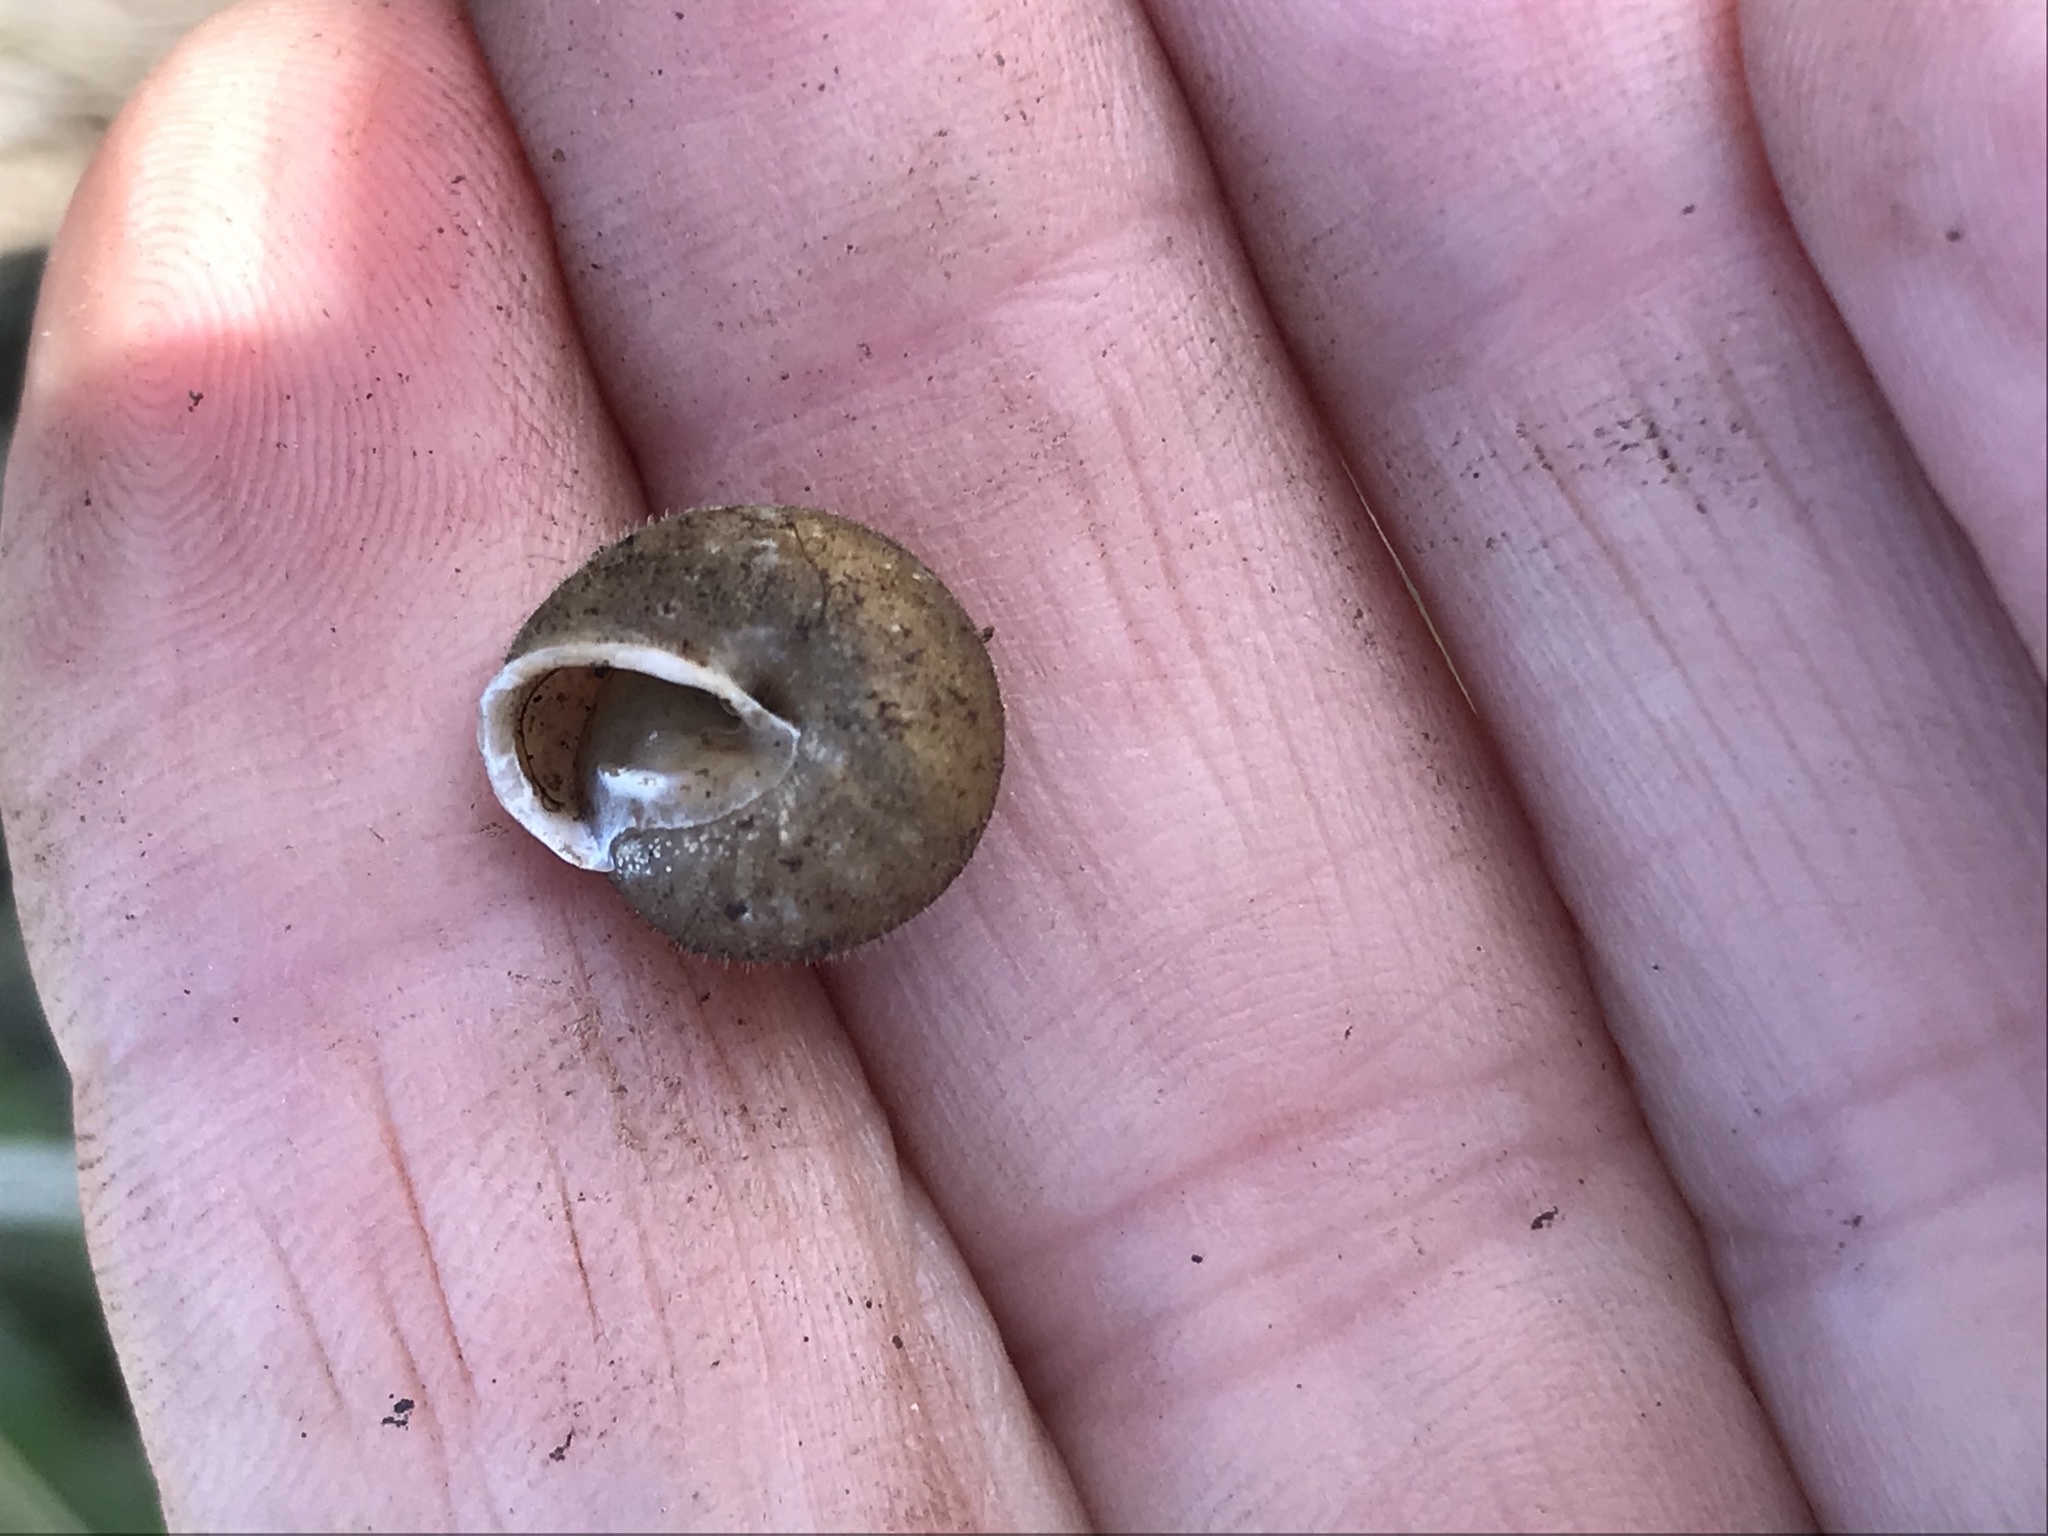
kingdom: Animalia
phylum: Mollusca
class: Gastropoda
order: Stylommatophora
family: Polygyridae
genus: Vespericola
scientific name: Vespericola megasoma
